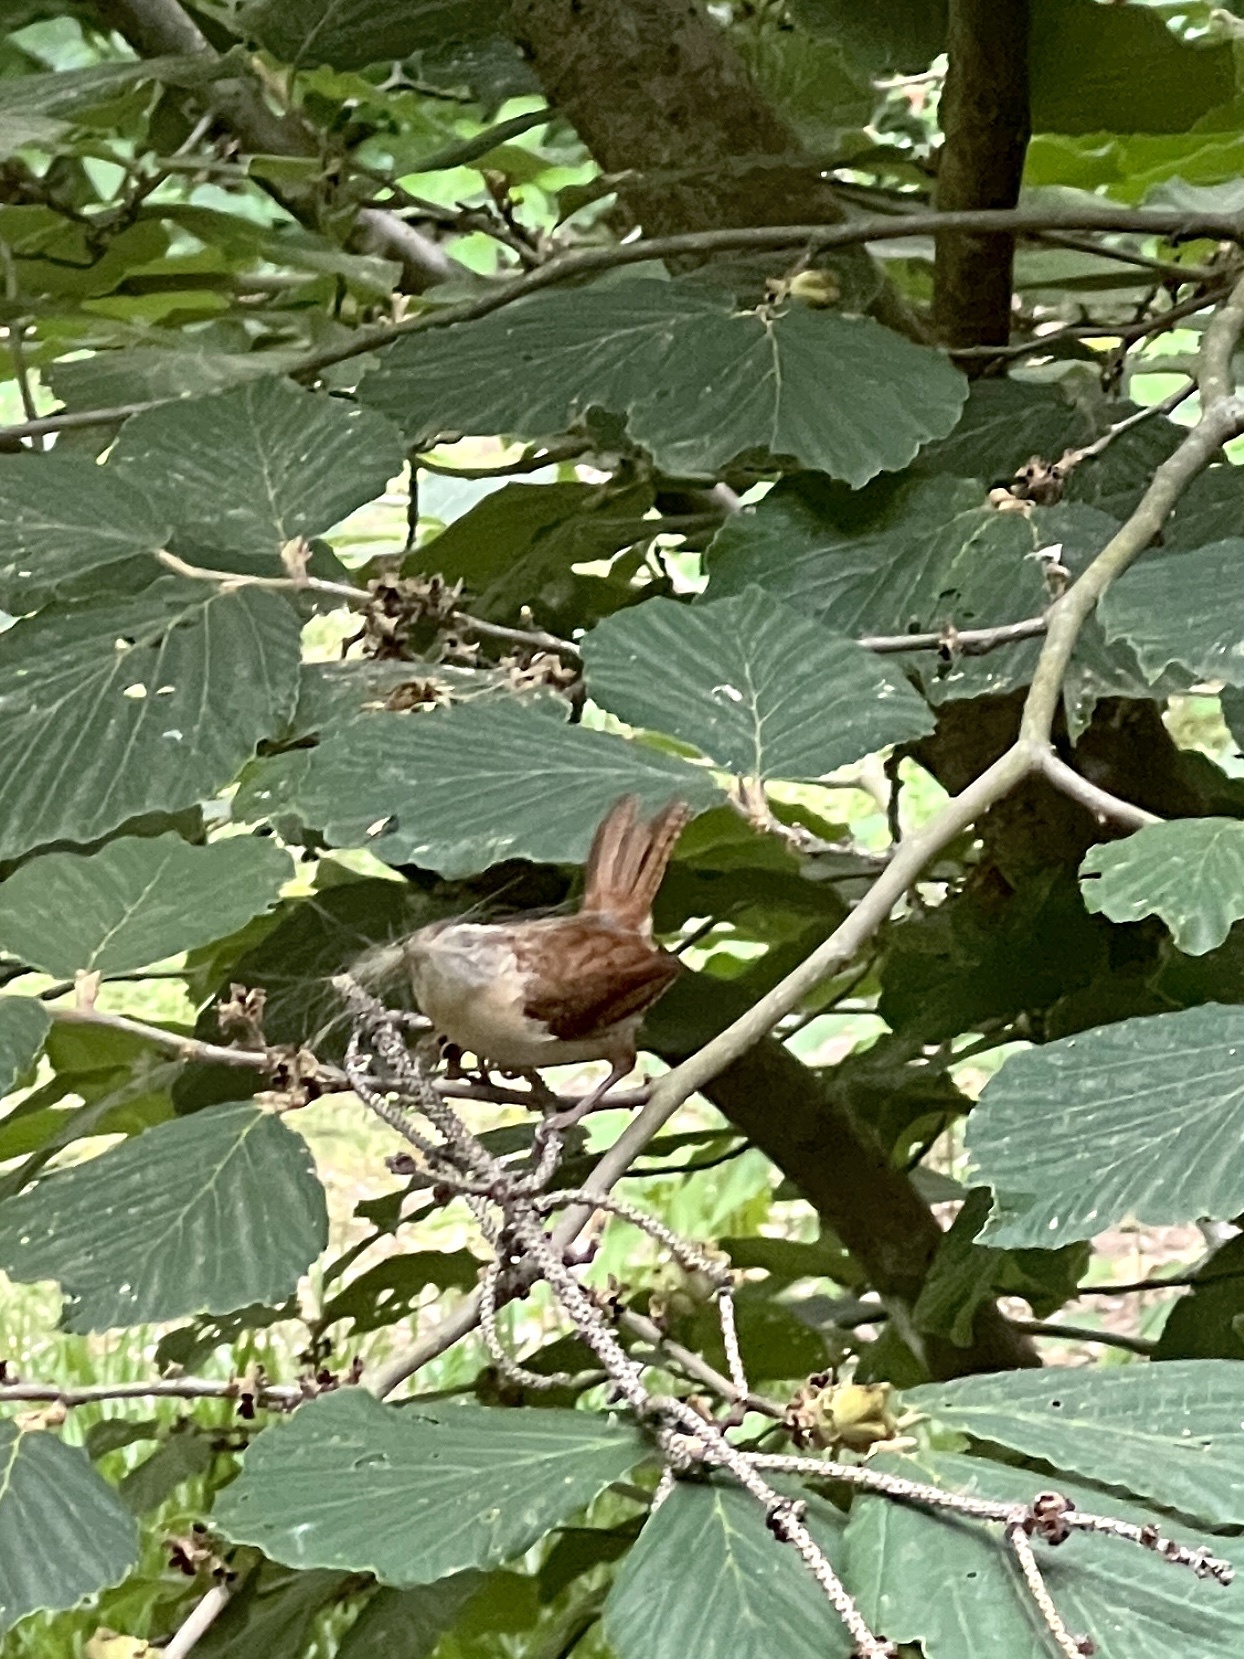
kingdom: Animalia
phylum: Chordata
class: Aves
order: Passeriformes
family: Troglodytidae
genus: Thryothorus
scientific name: Thryothorus ludovicianus
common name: Carolina wren
